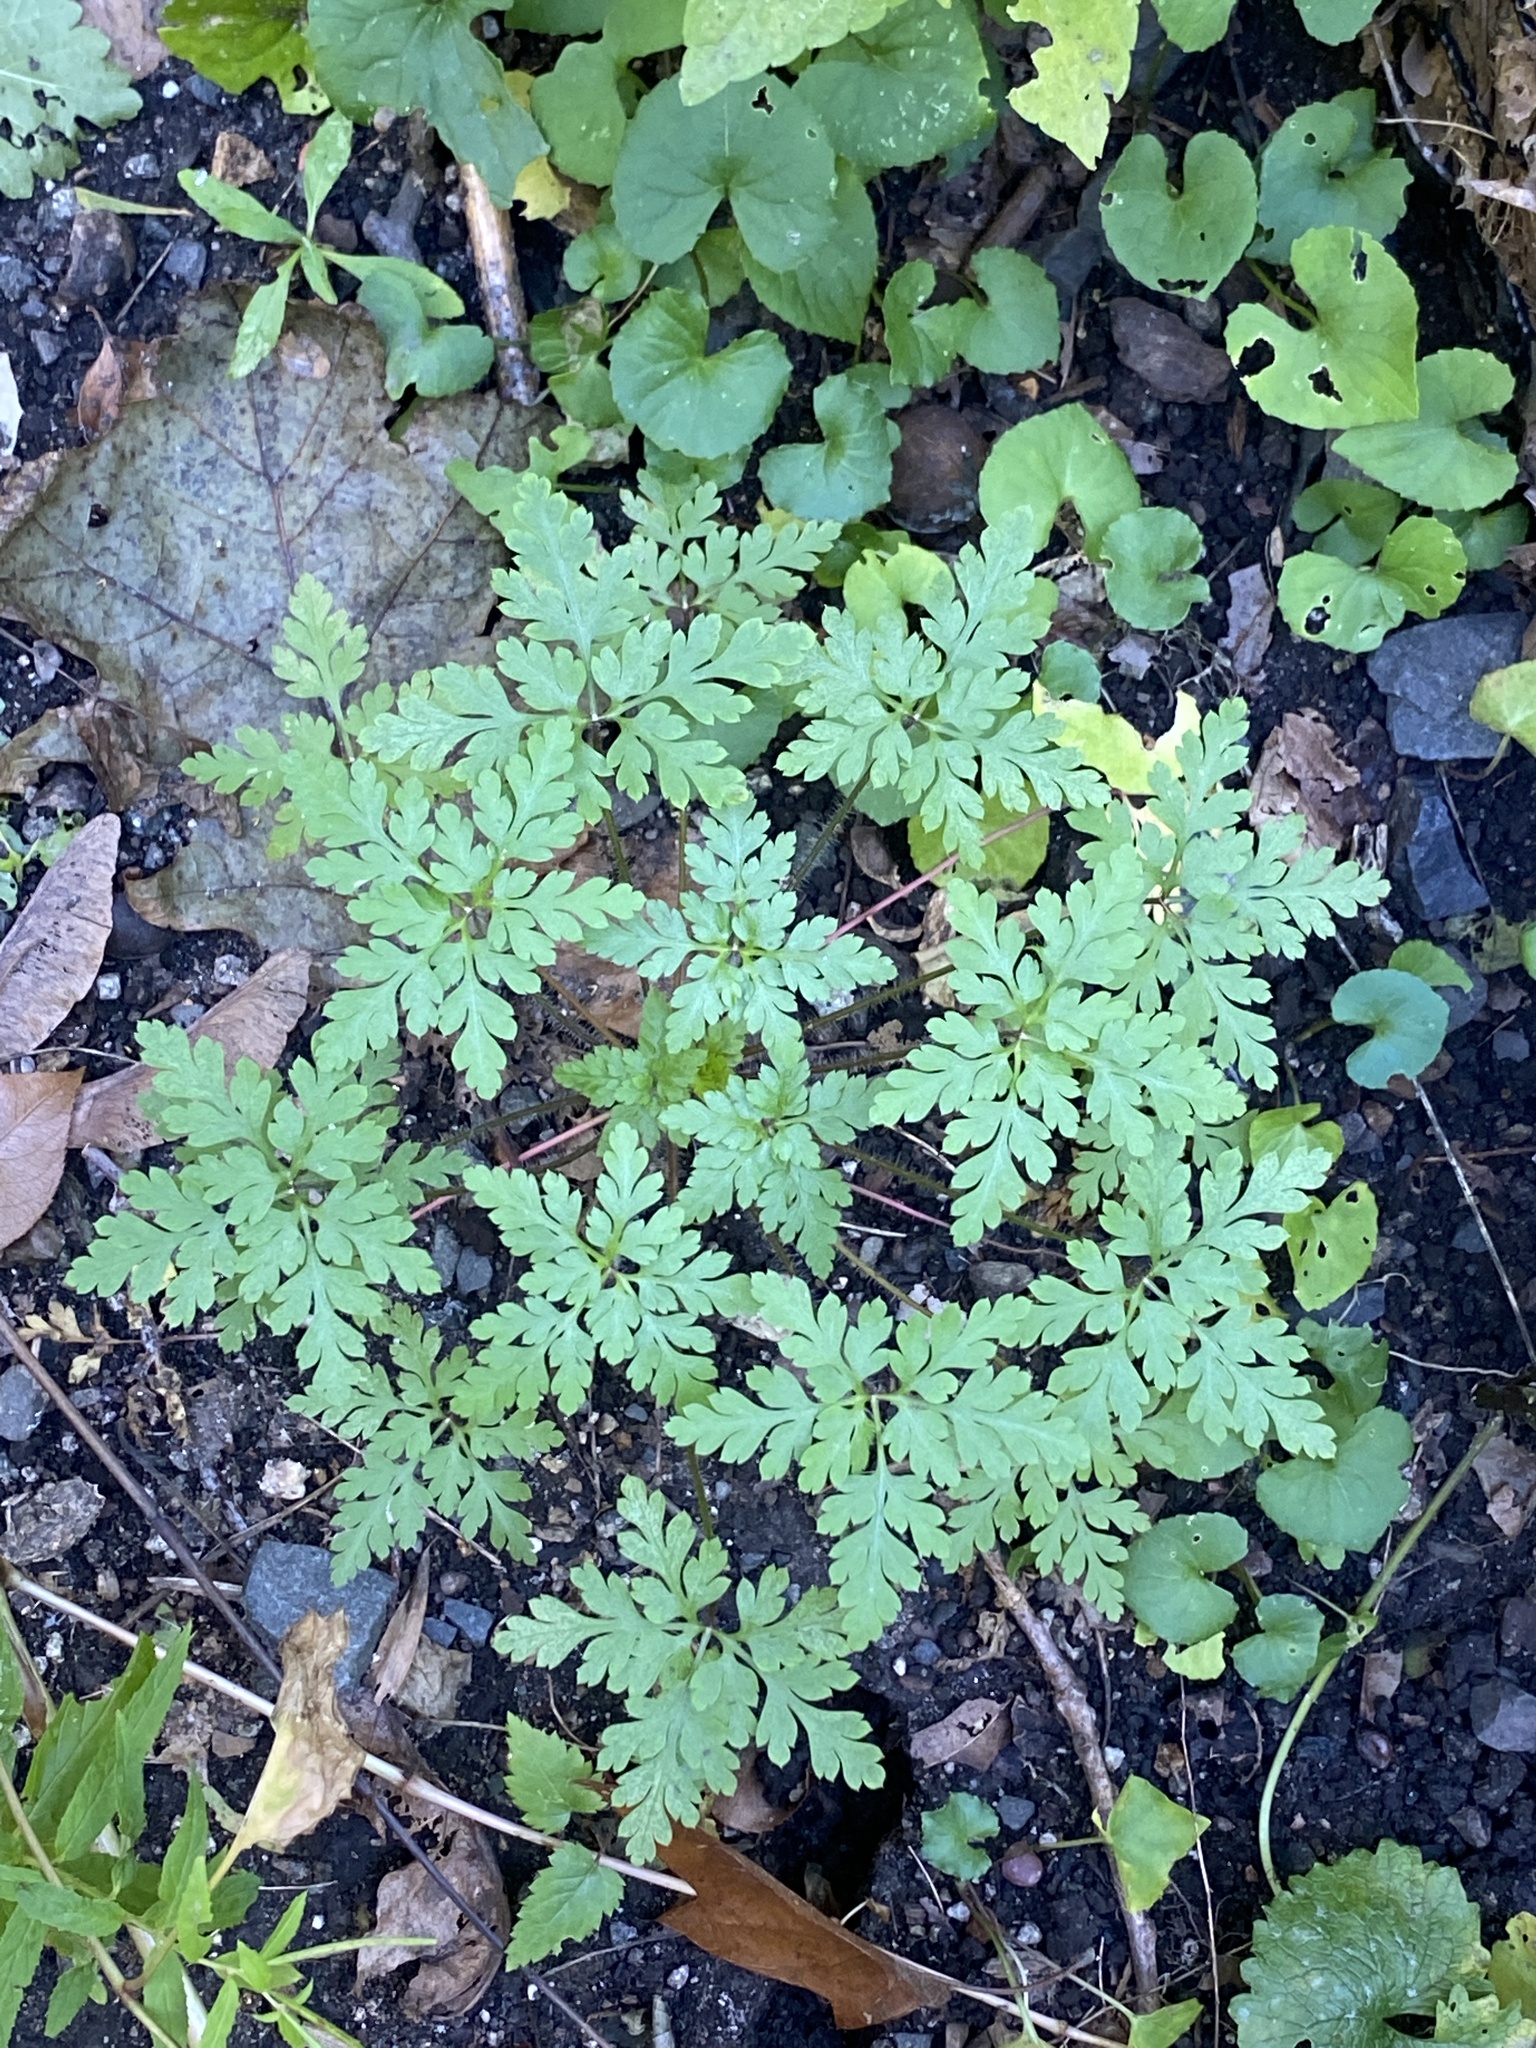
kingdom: Plantae
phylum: Tracheophyta
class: Magnoliopsida
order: Geraniales
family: Geraniaceae
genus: Geranium
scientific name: Geranium robertianum
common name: Herb-robert
